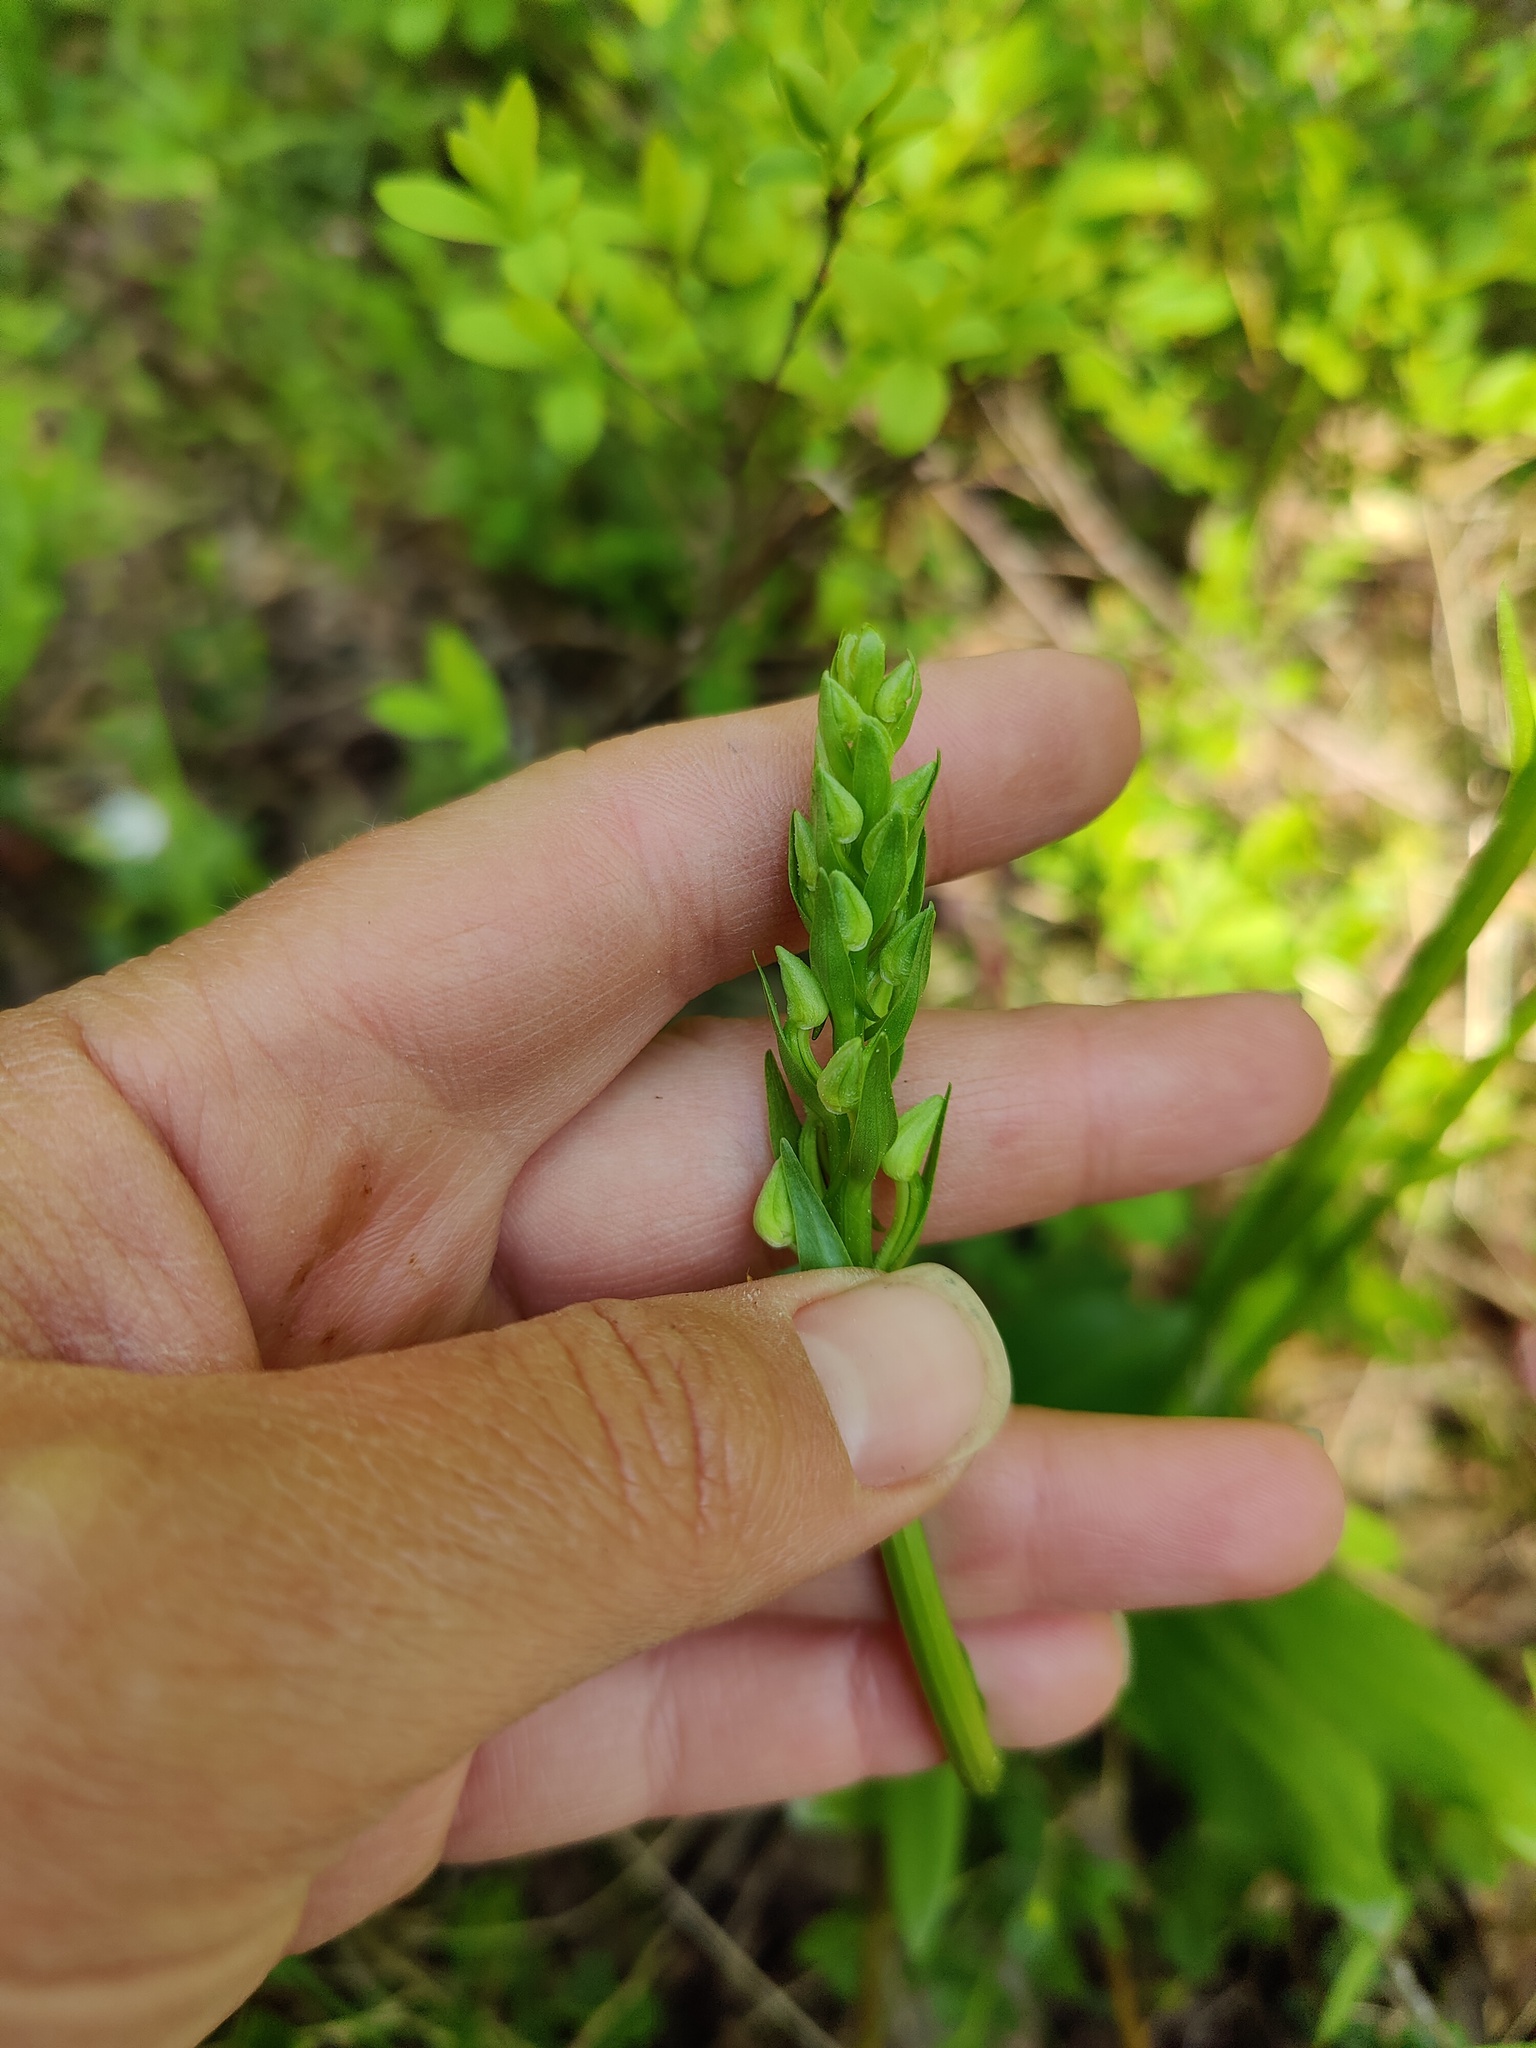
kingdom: Plantae
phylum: Tracheophyta
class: Liliopsida
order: Asparagales
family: Orchidaceae
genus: Platanthera
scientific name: Platanthera bifolia
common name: Lesser butterfly-orchid
